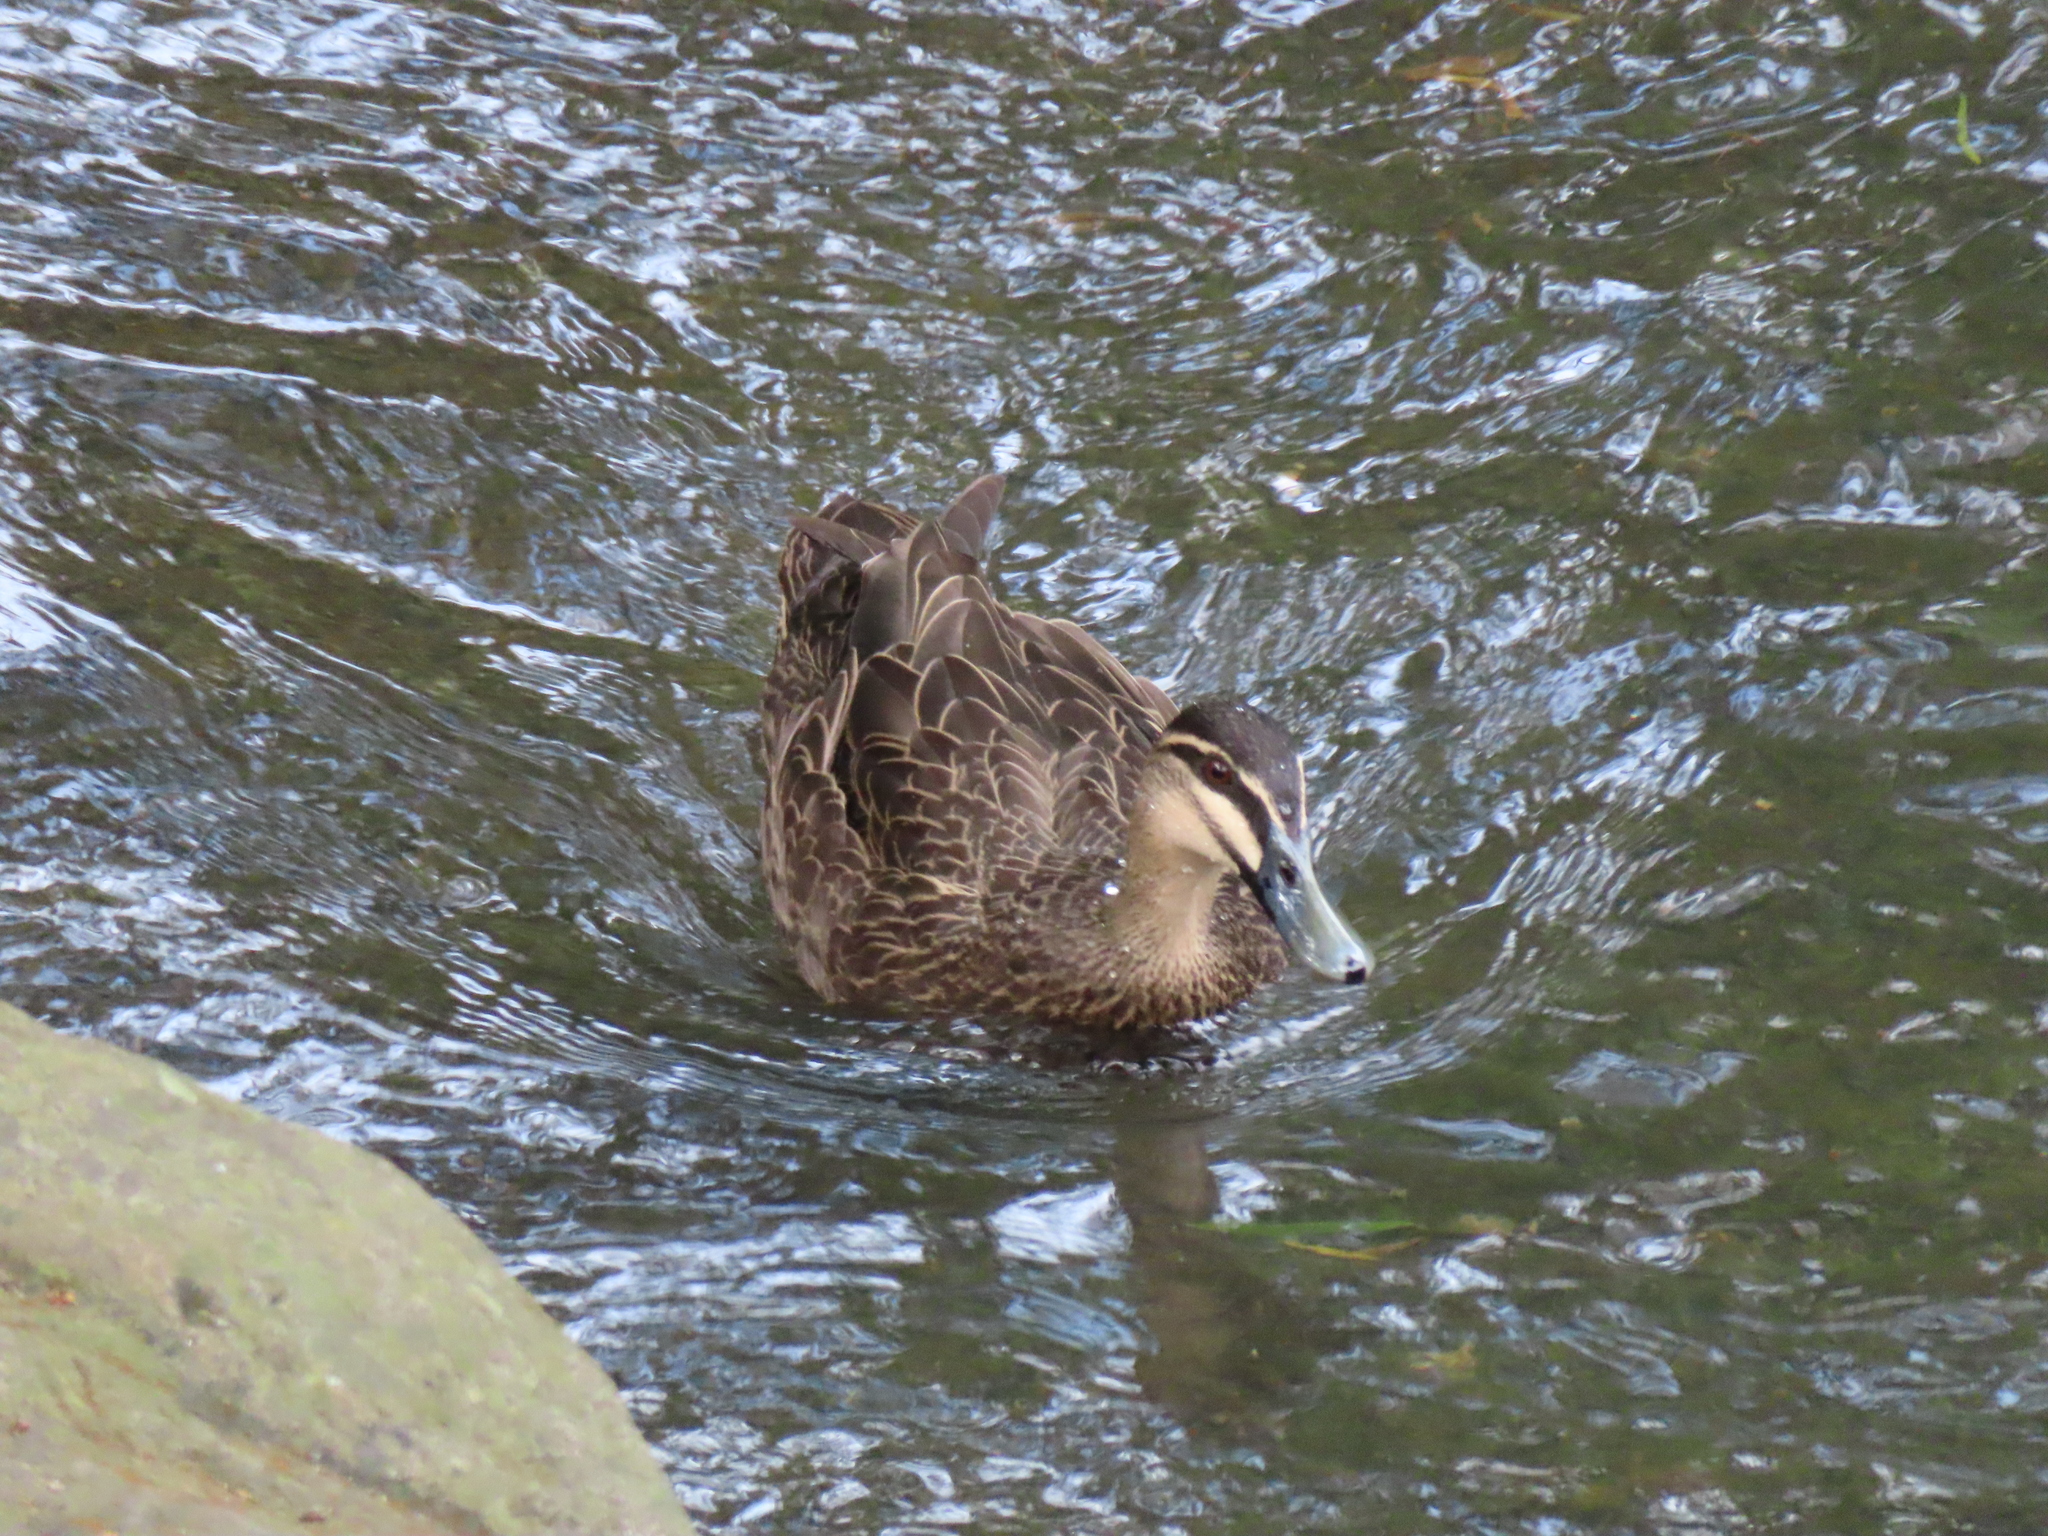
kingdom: Animalia
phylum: Chordata
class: Aves
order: Anseriformes
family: Anatidae
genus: Anas
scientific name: Anas superciliosa
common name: Pacific black duck
